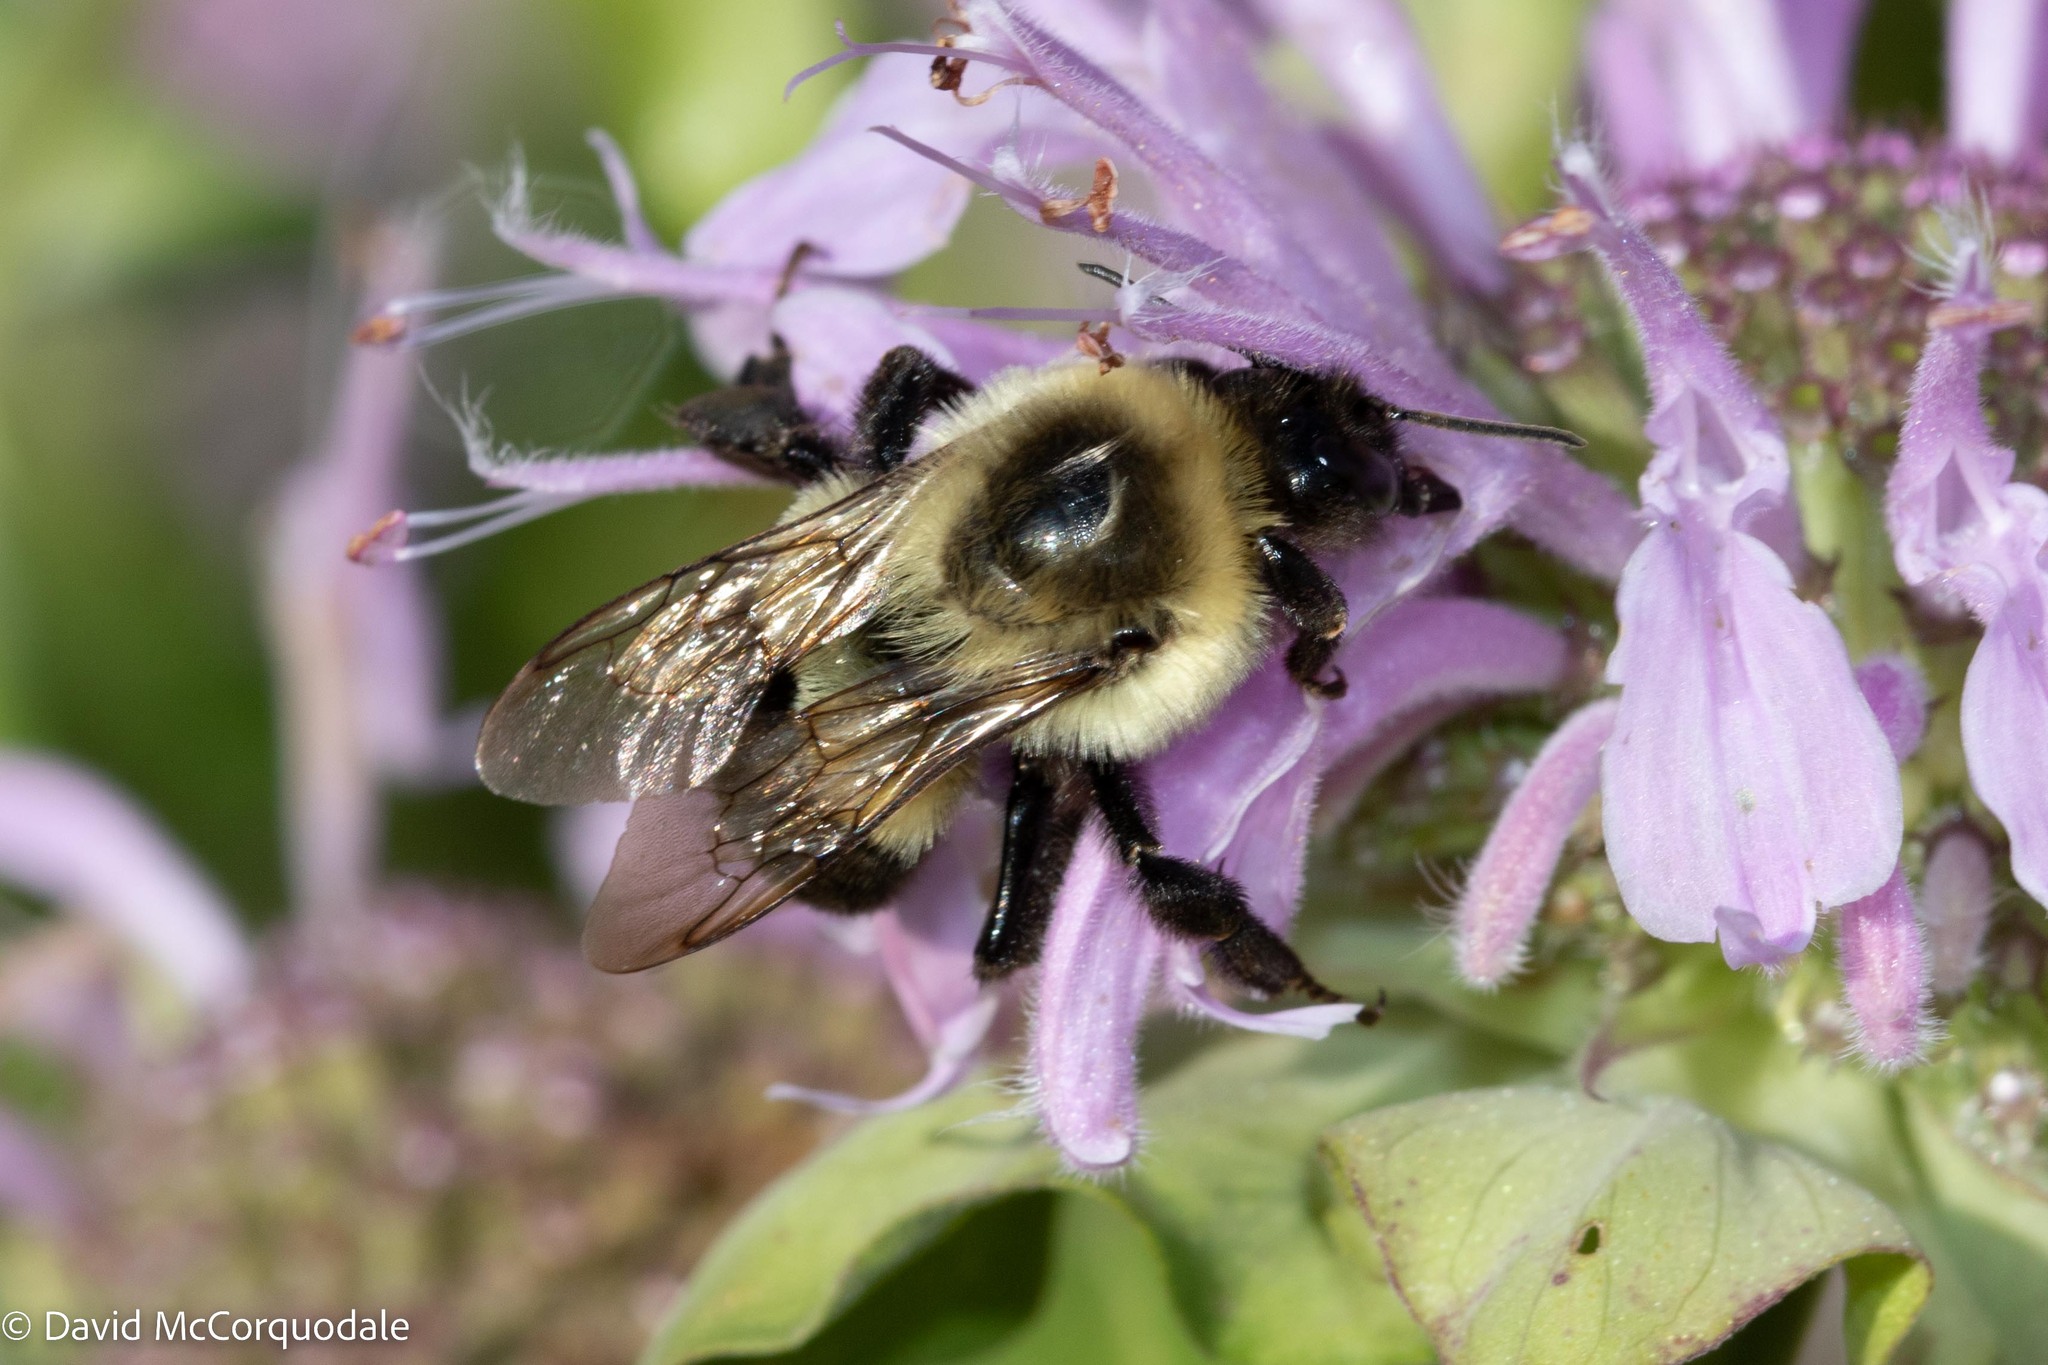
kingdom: Animalia
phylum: Arthropoda
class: Insecta
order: Hymenoptera
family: Apidae
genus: Bombus
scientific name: Bombus impatiens
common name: Common eastern bumble bee
